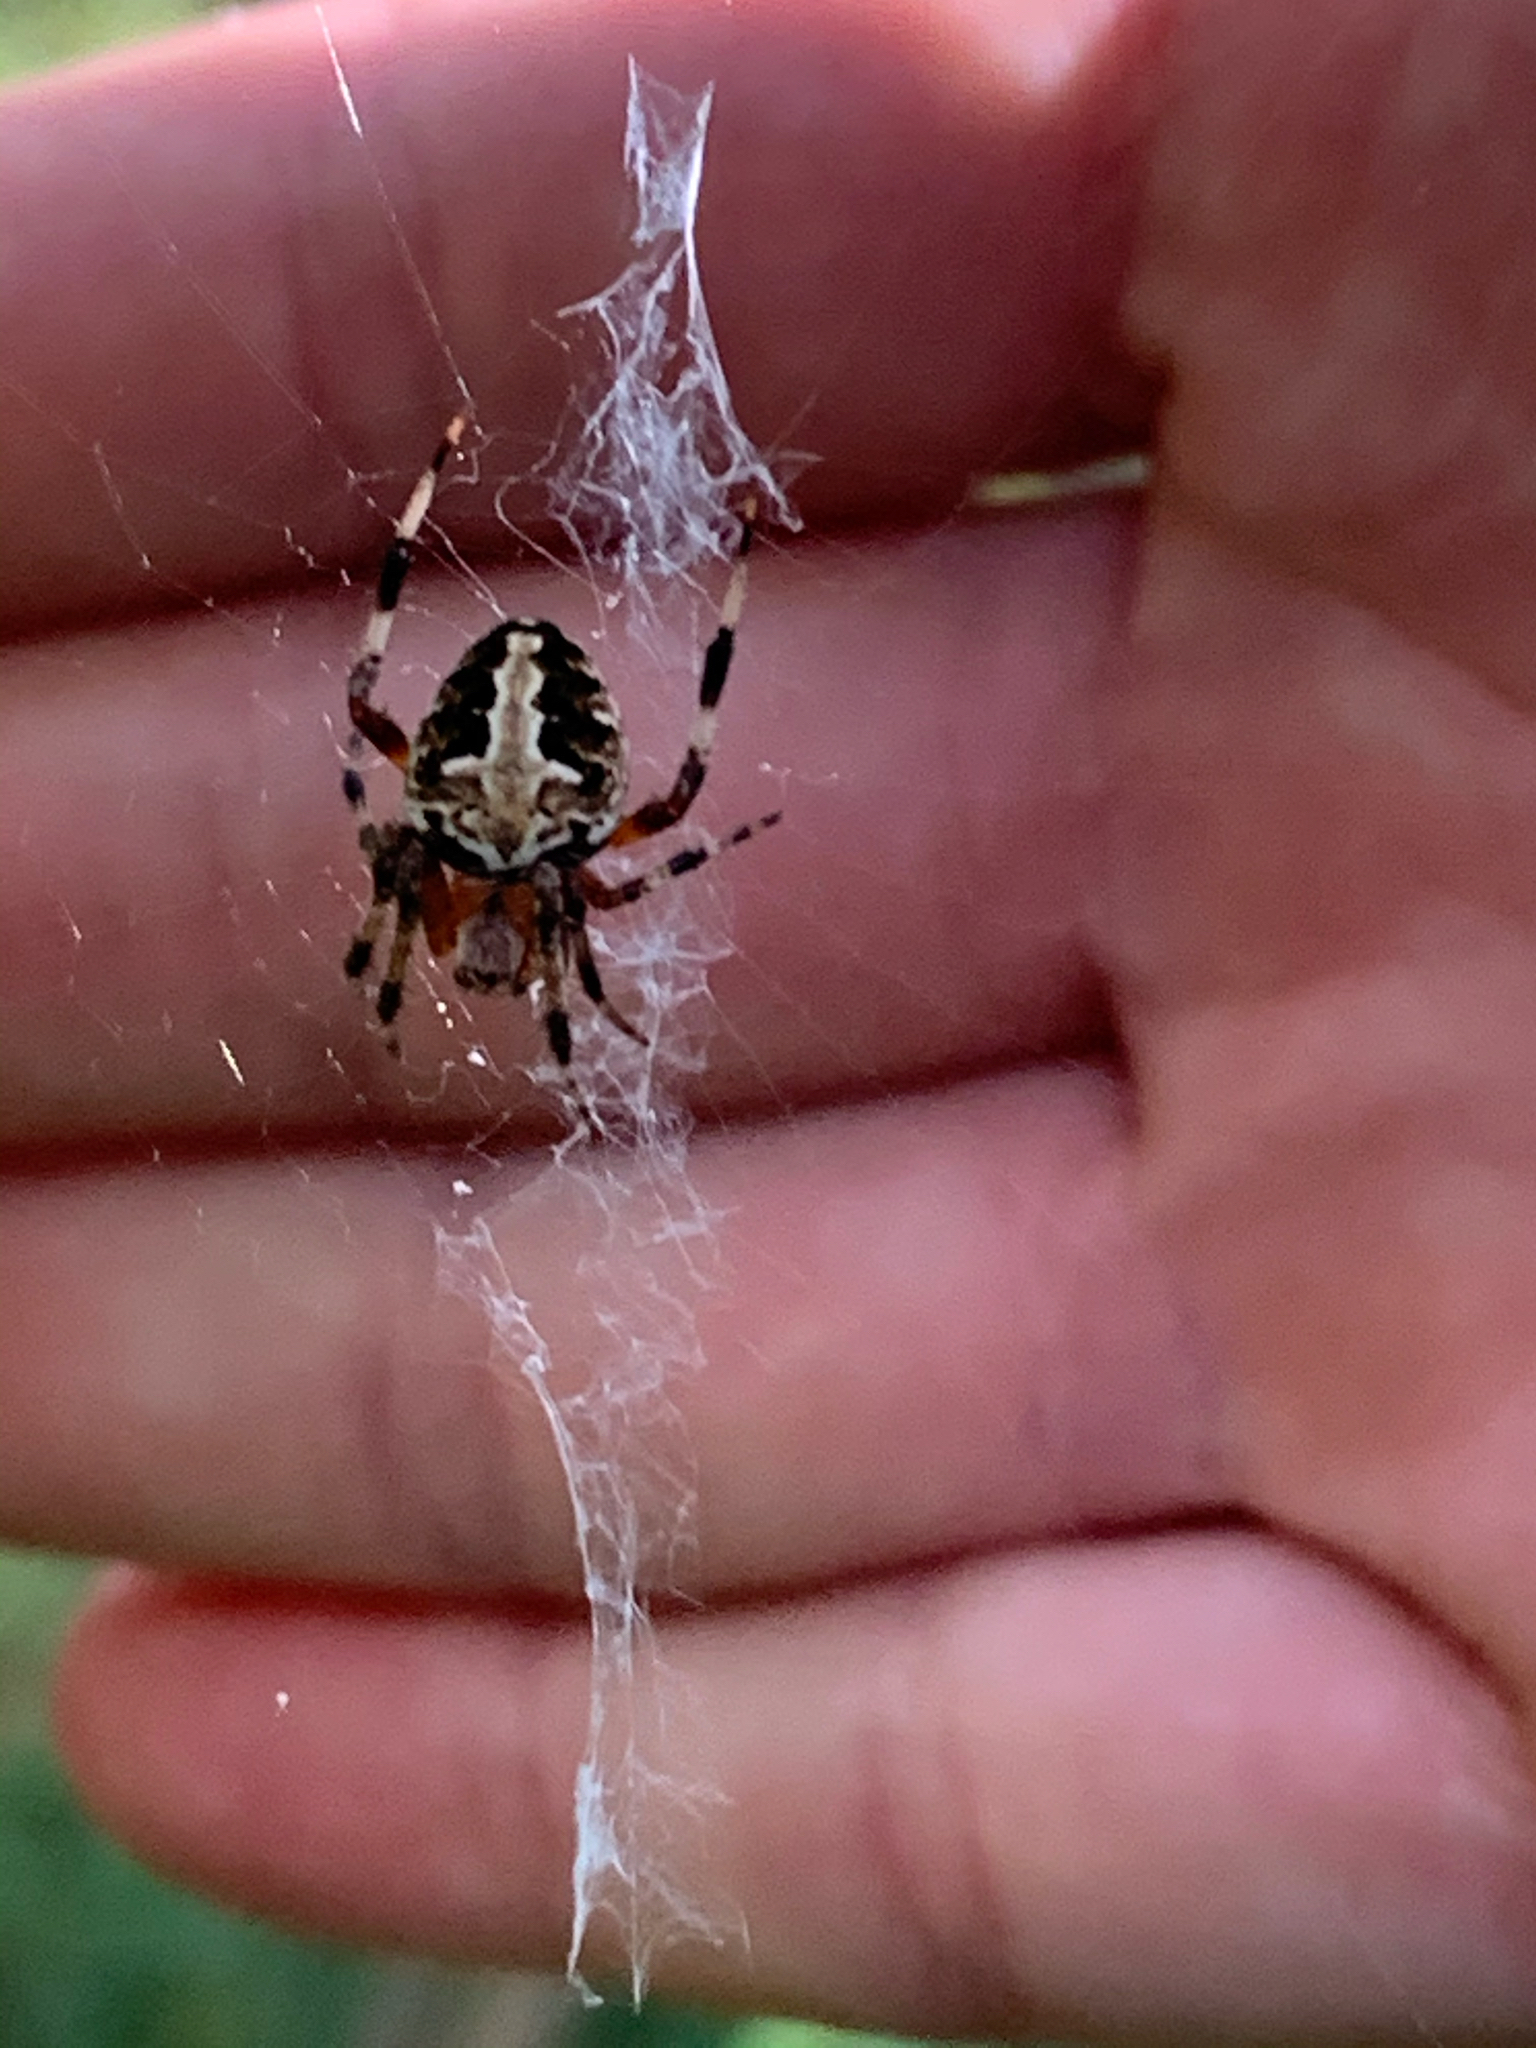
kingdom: Animalia
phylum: Arthropoda
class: Arachnida
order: Araneae
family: Araneidae
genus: Neoscona
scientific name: Neoscona domiciliorum
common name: Red-femured spotted orbweaver
